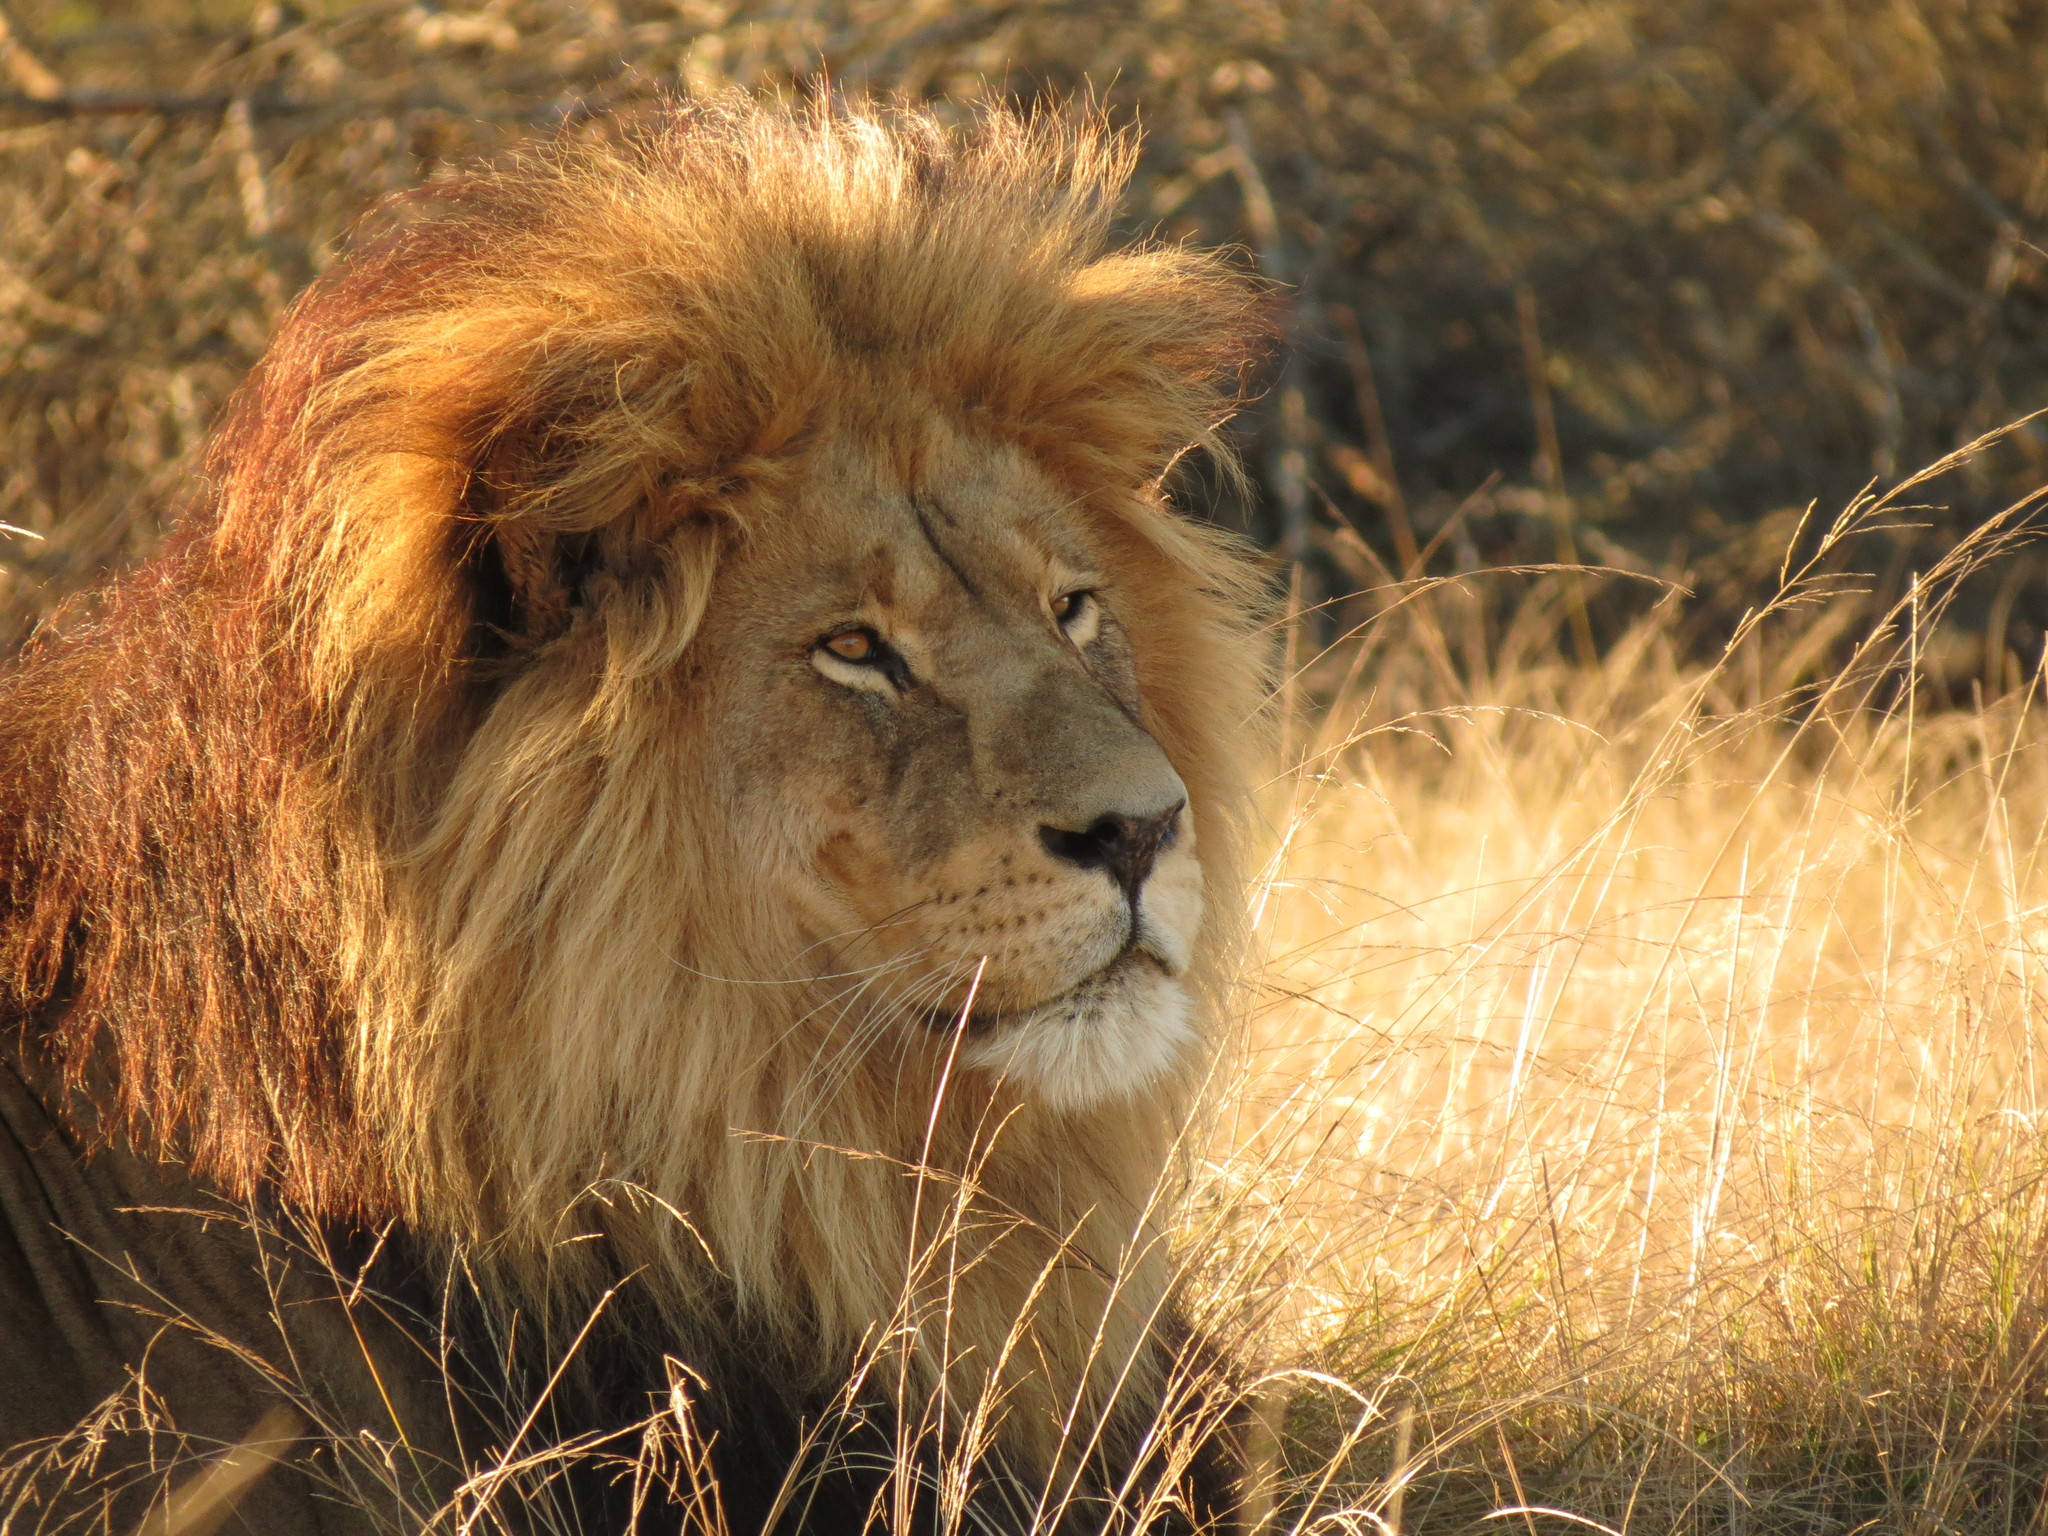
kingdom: Animalia
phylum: Chordata
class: Mammalia
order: Carnivora
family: Felidae
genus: Panthera
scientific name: Panthera leo
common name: Lion
